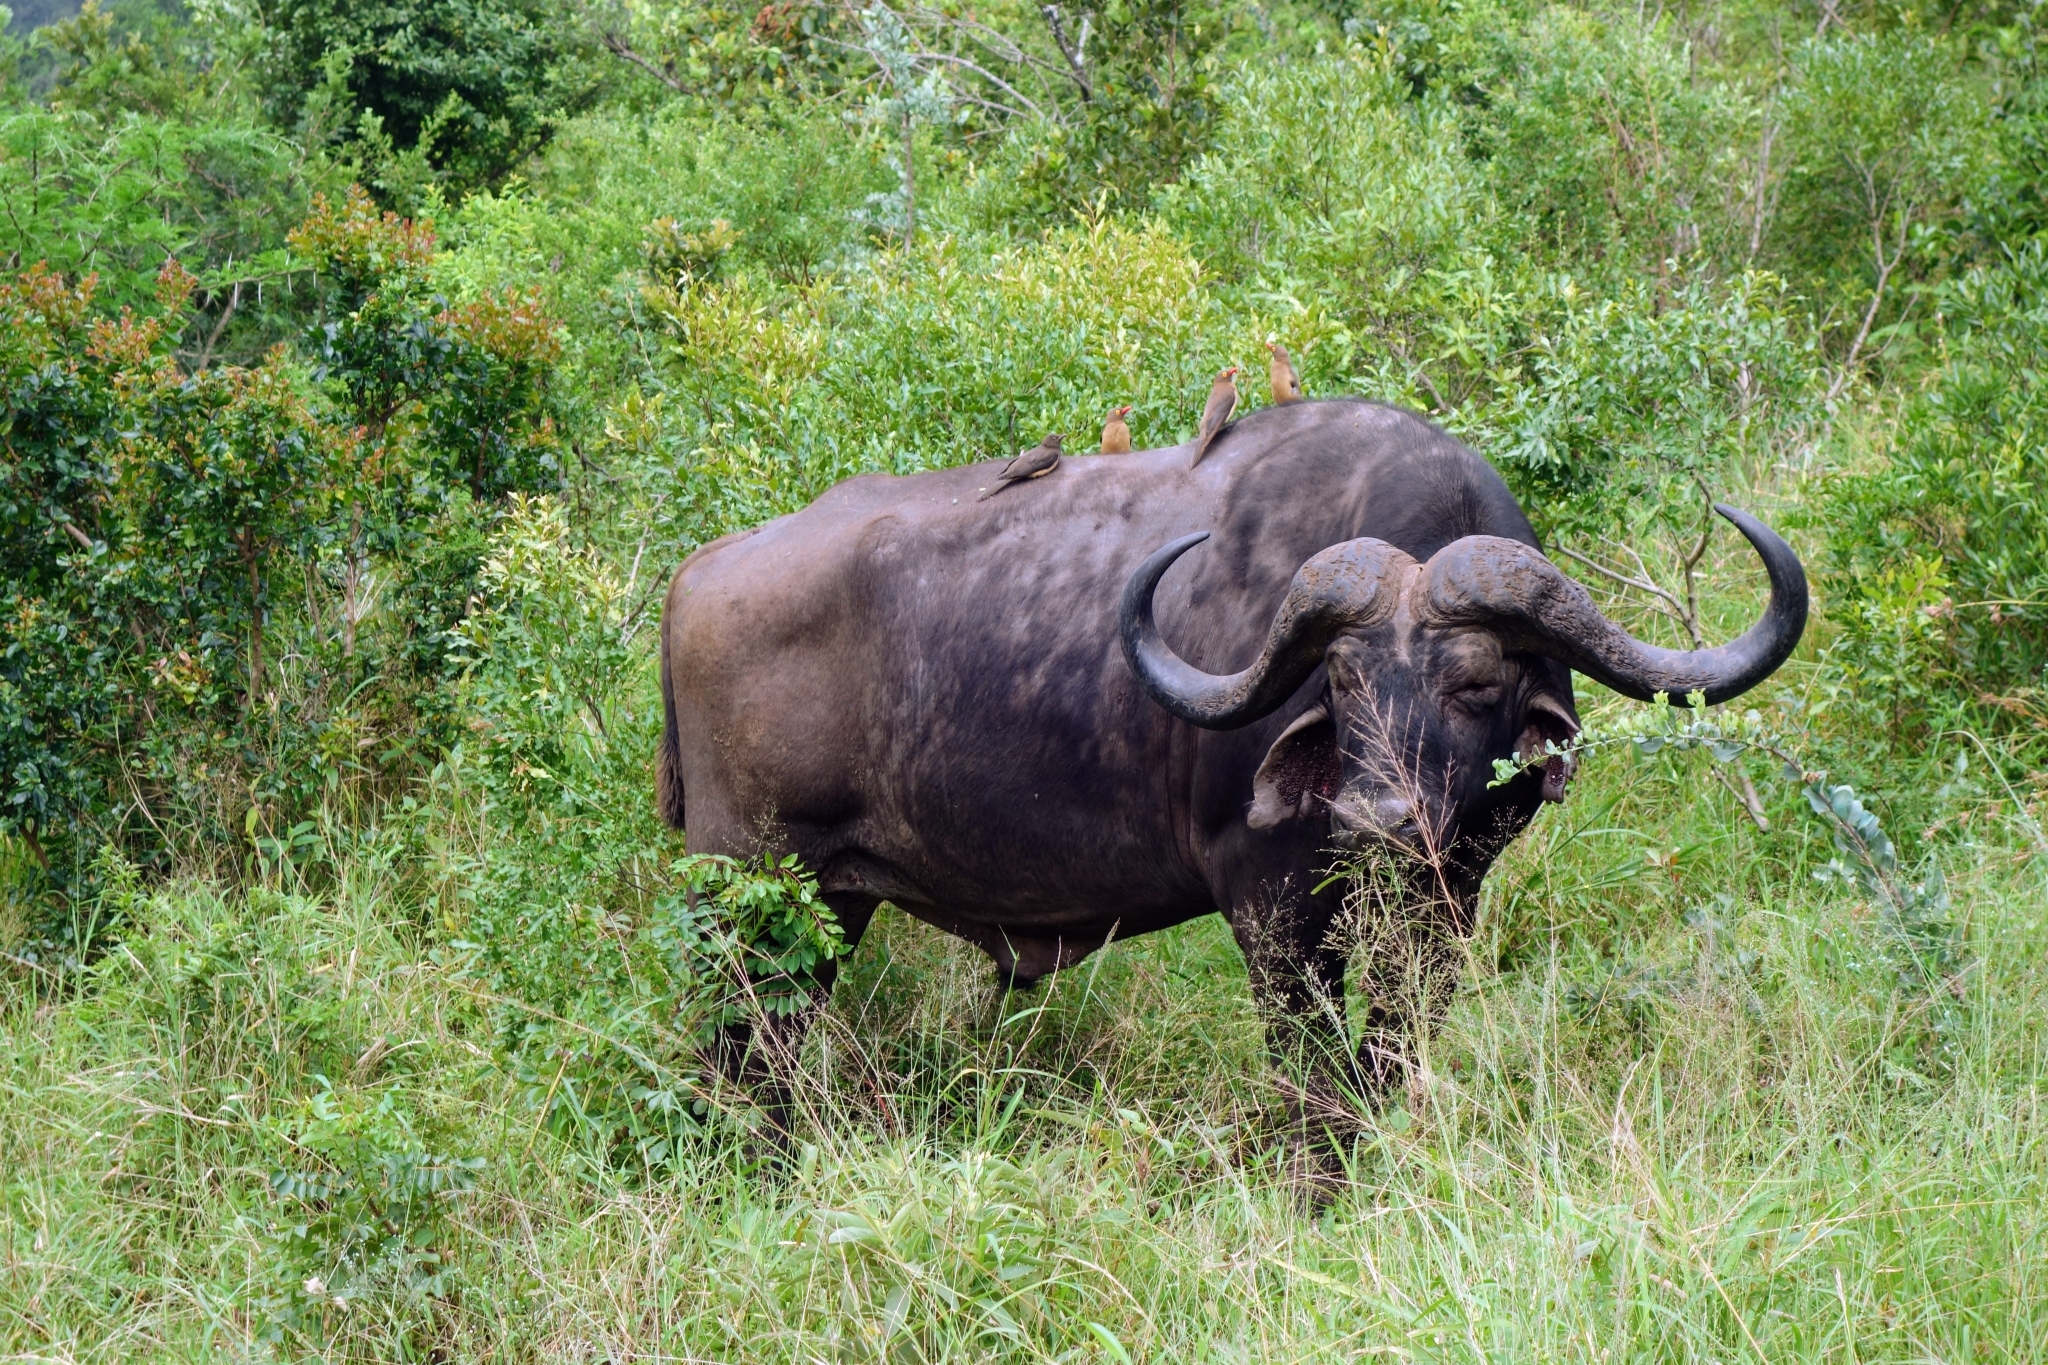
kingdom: Animalia
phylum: Chordata
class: Mammalia
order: Artiodactyla
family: Bovidae
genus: Syncerus
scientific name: Syncerus caffer
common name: African buffalo
